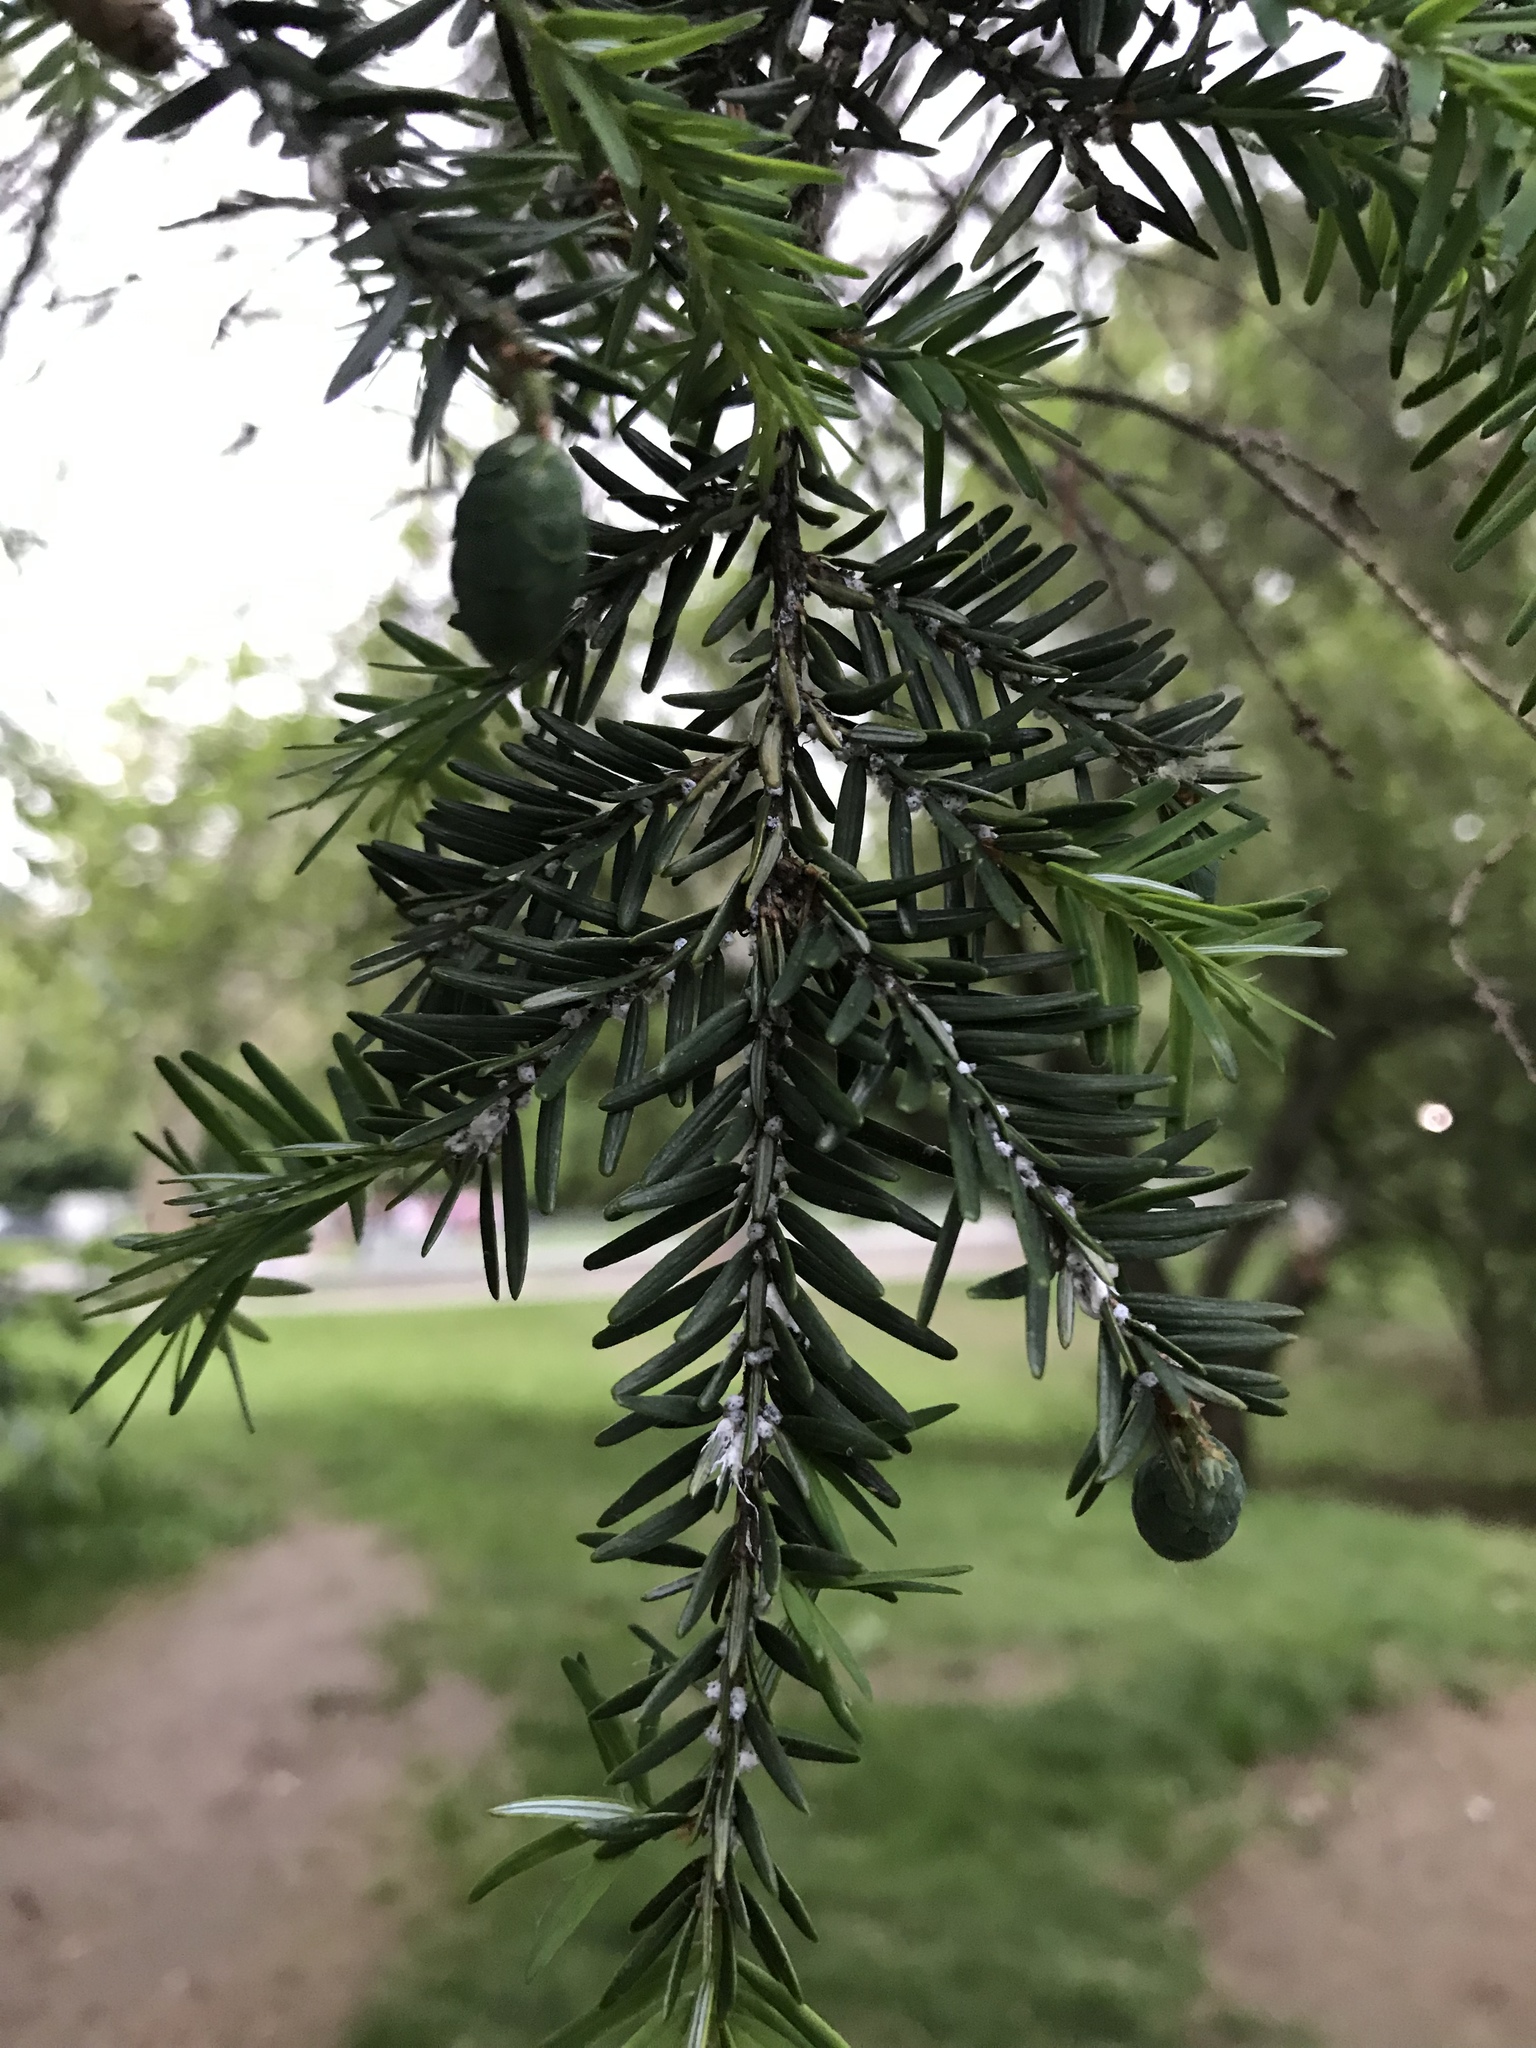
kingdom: Animalia
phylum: Arthropoda
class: Insecta
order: Hemiptera
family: Adelgidae
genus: Adelges
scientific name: Adelges tsugae
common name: Hemlock woolly adelgid
